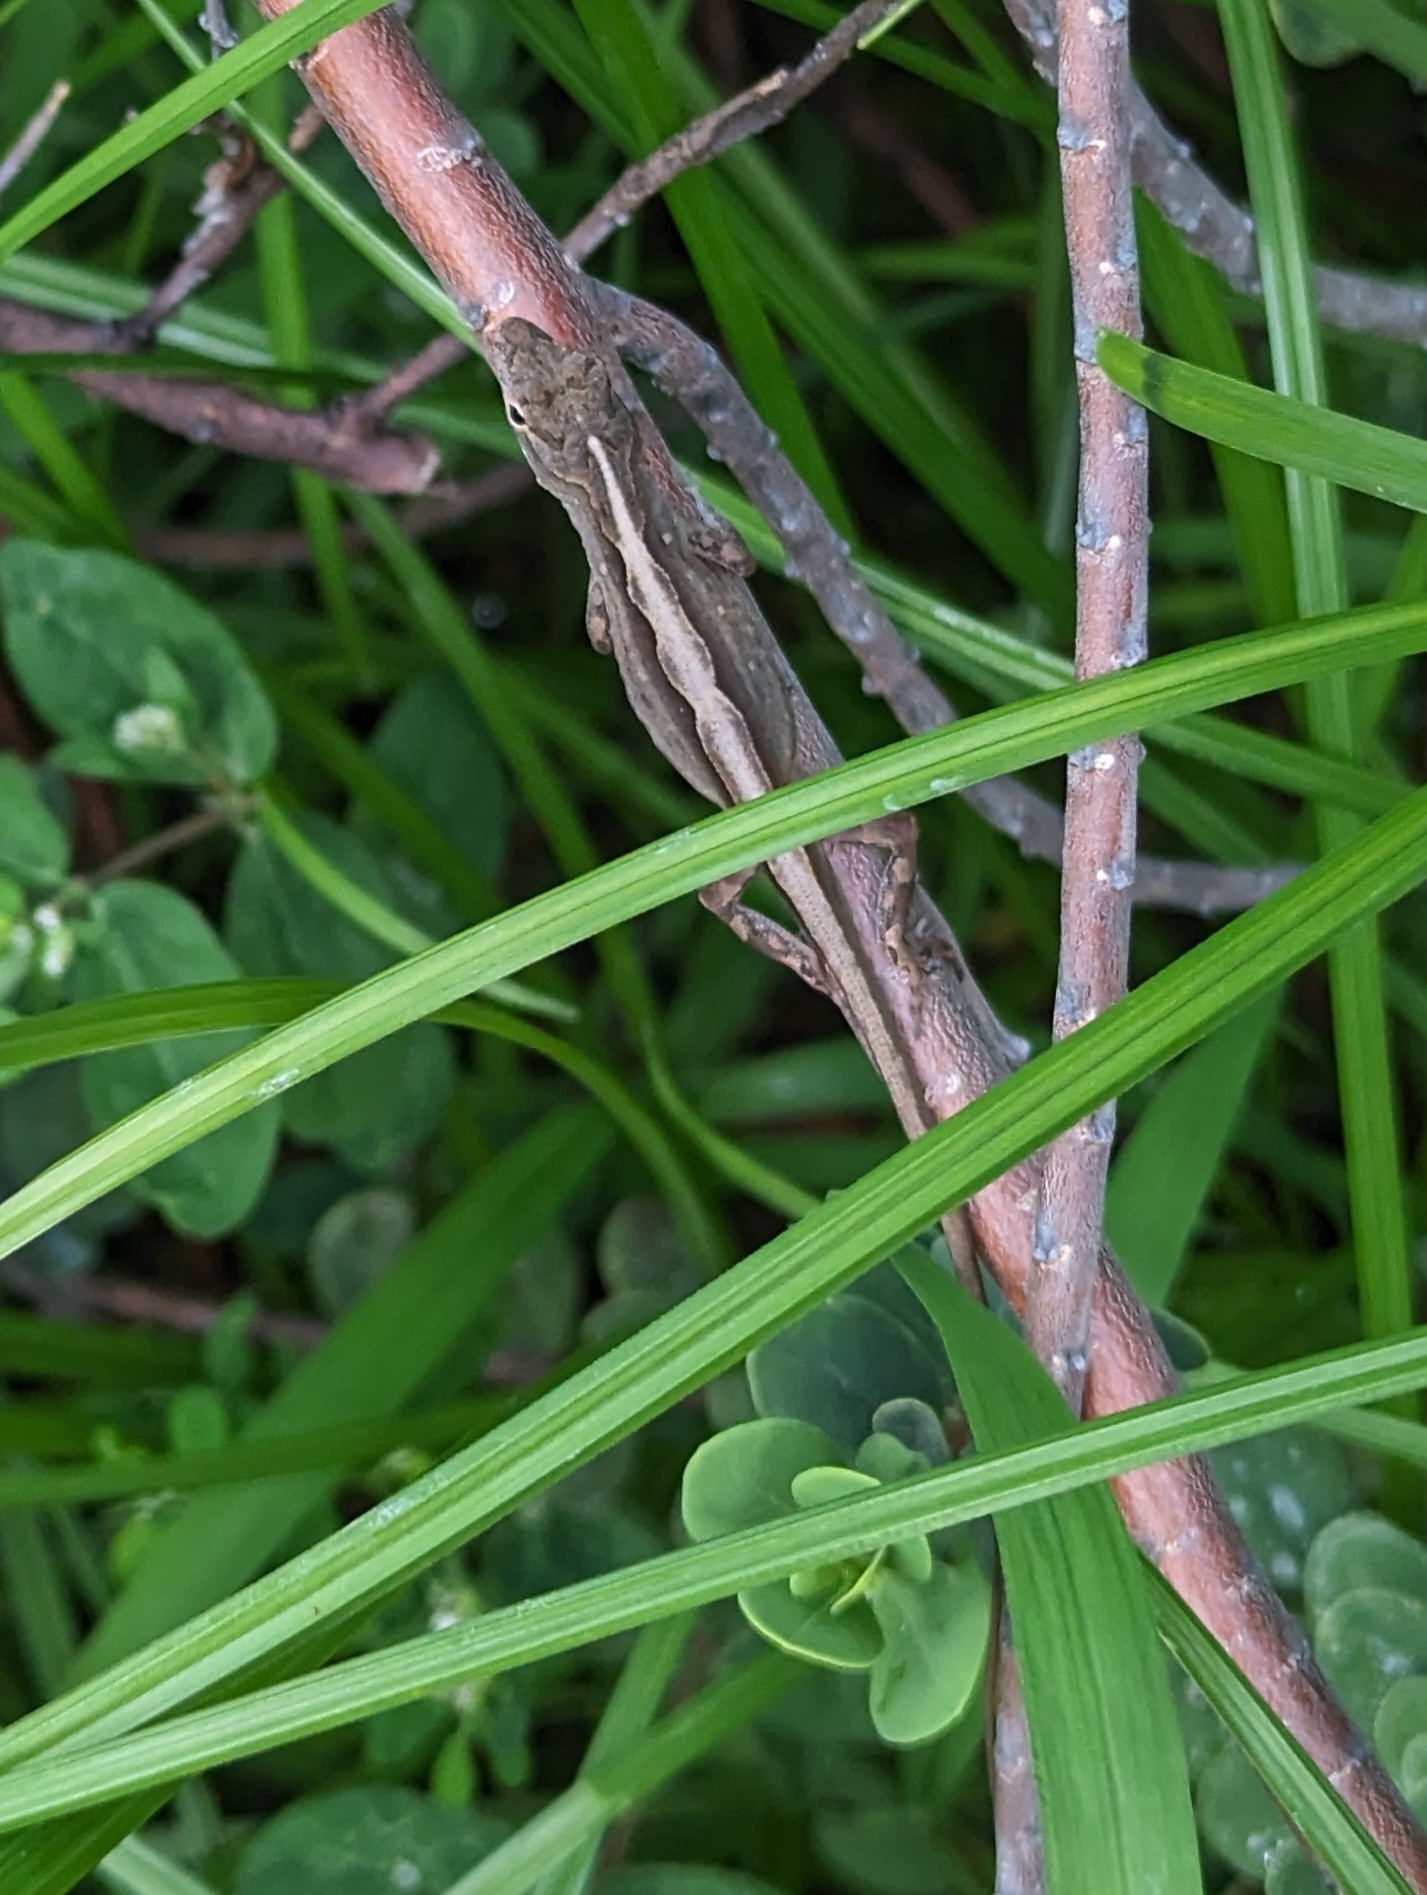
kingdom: Animalia
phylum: Chordata
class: Squamata
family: Dactyloidae
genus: Anolis
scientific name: Anolis sagrei
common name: Brown anole
